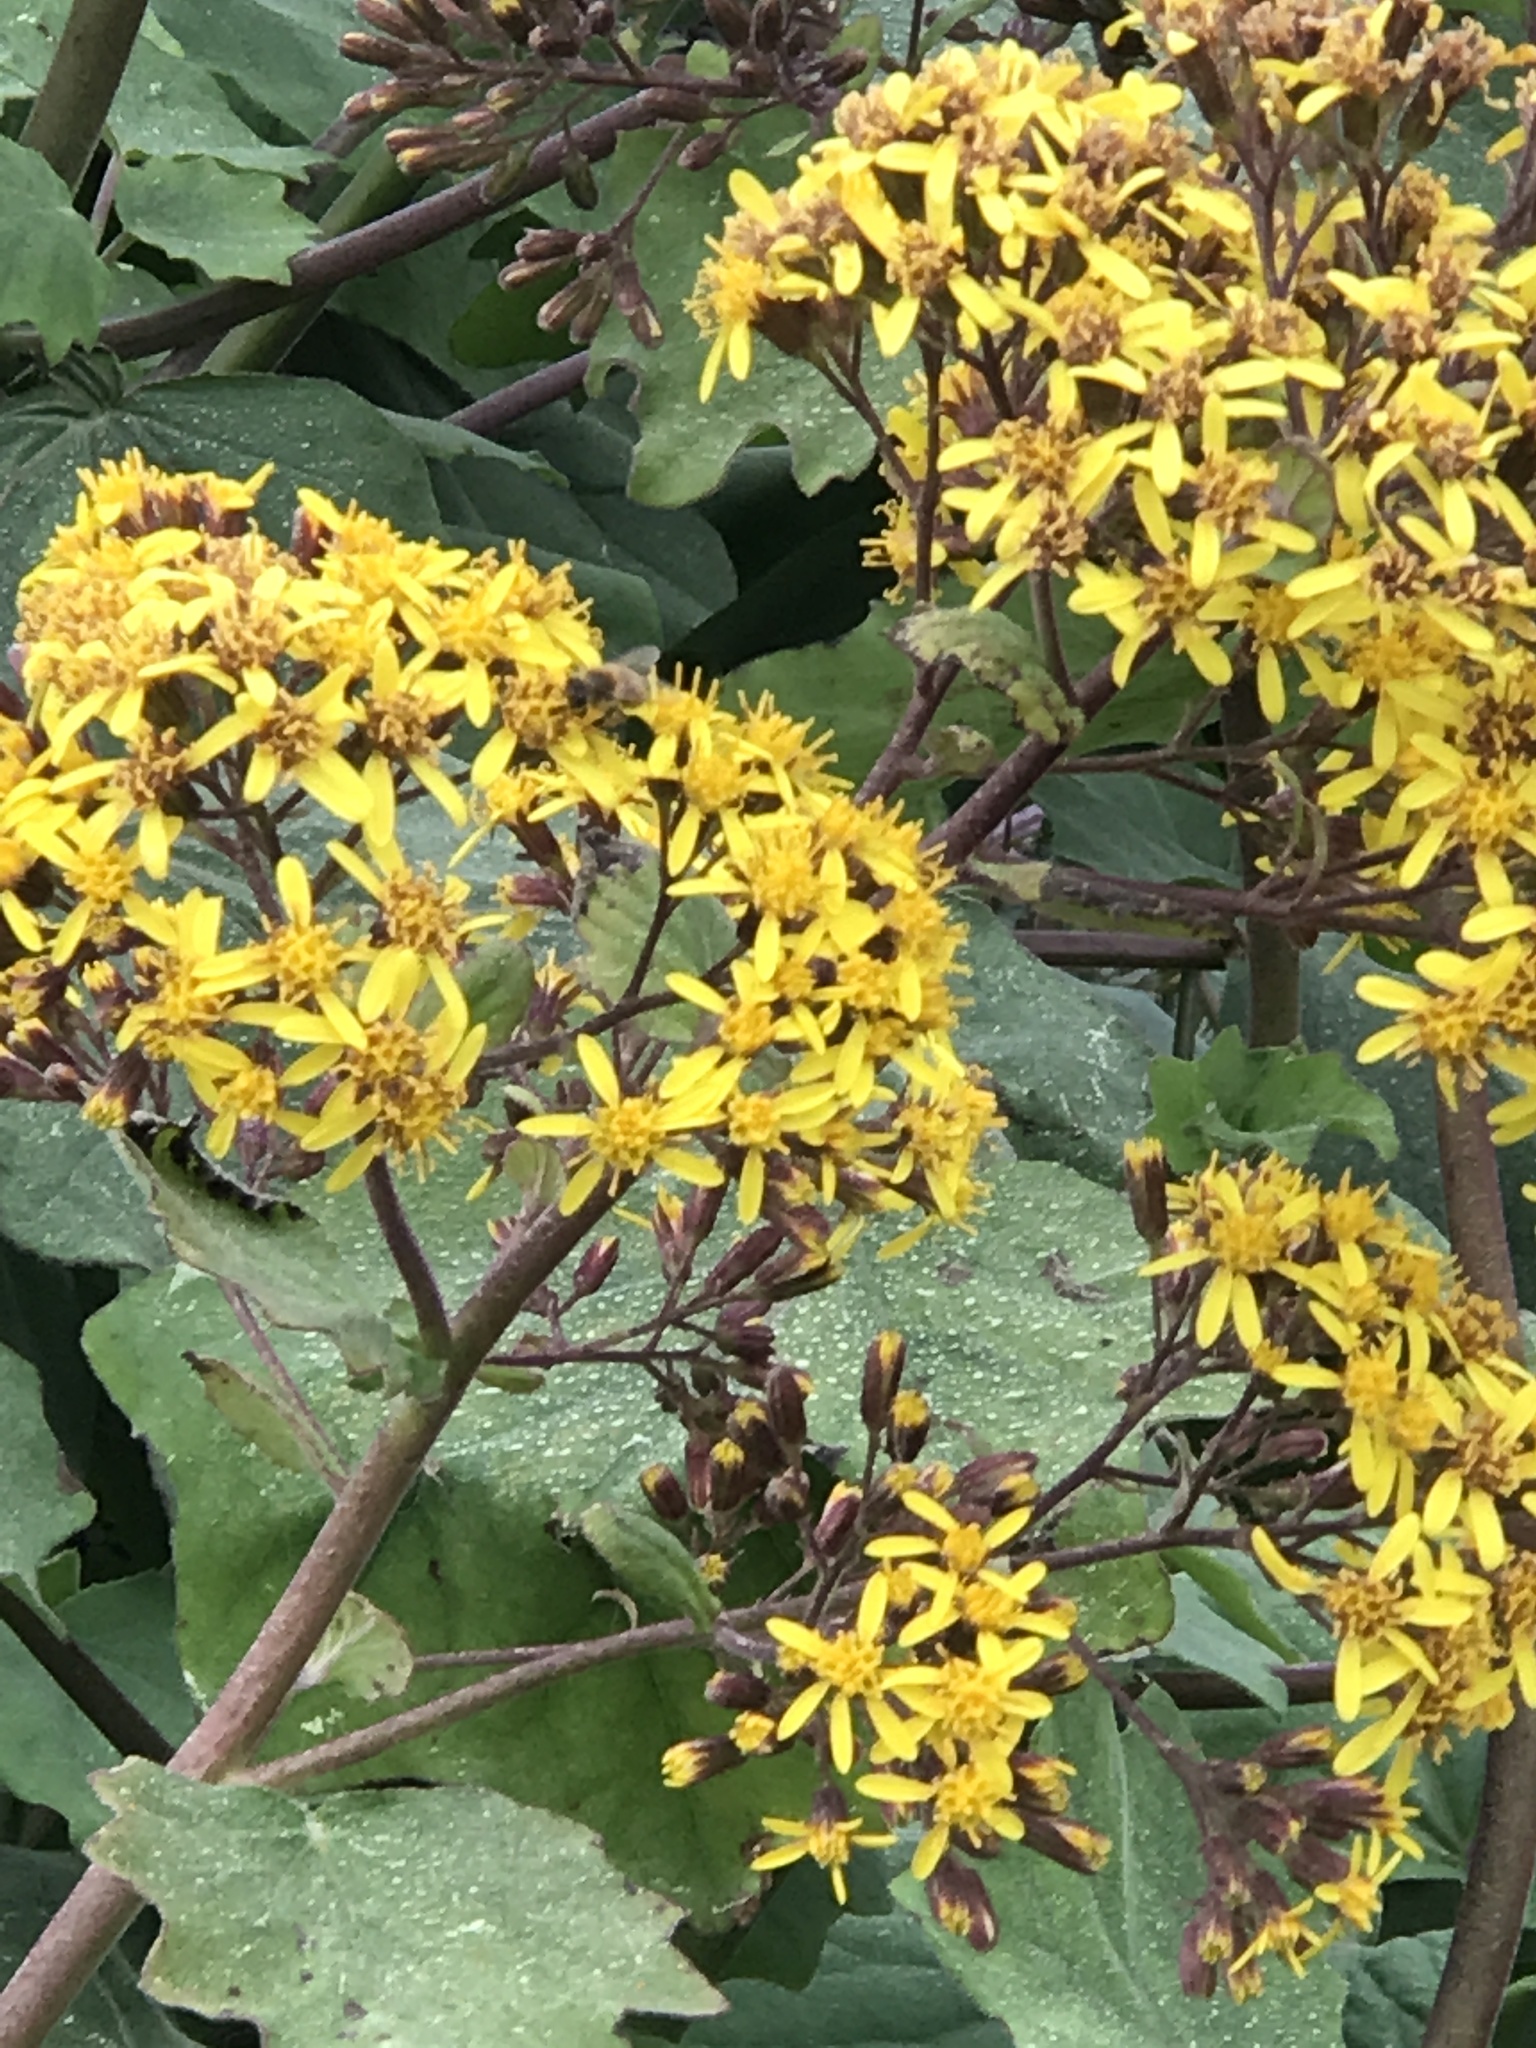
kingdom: Plantae
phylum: Tracheophyta
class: Magnoliopsida
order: Asterales
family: Asteraceae
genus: Roldana
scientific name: Roldana petasitis
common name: California-geranium
